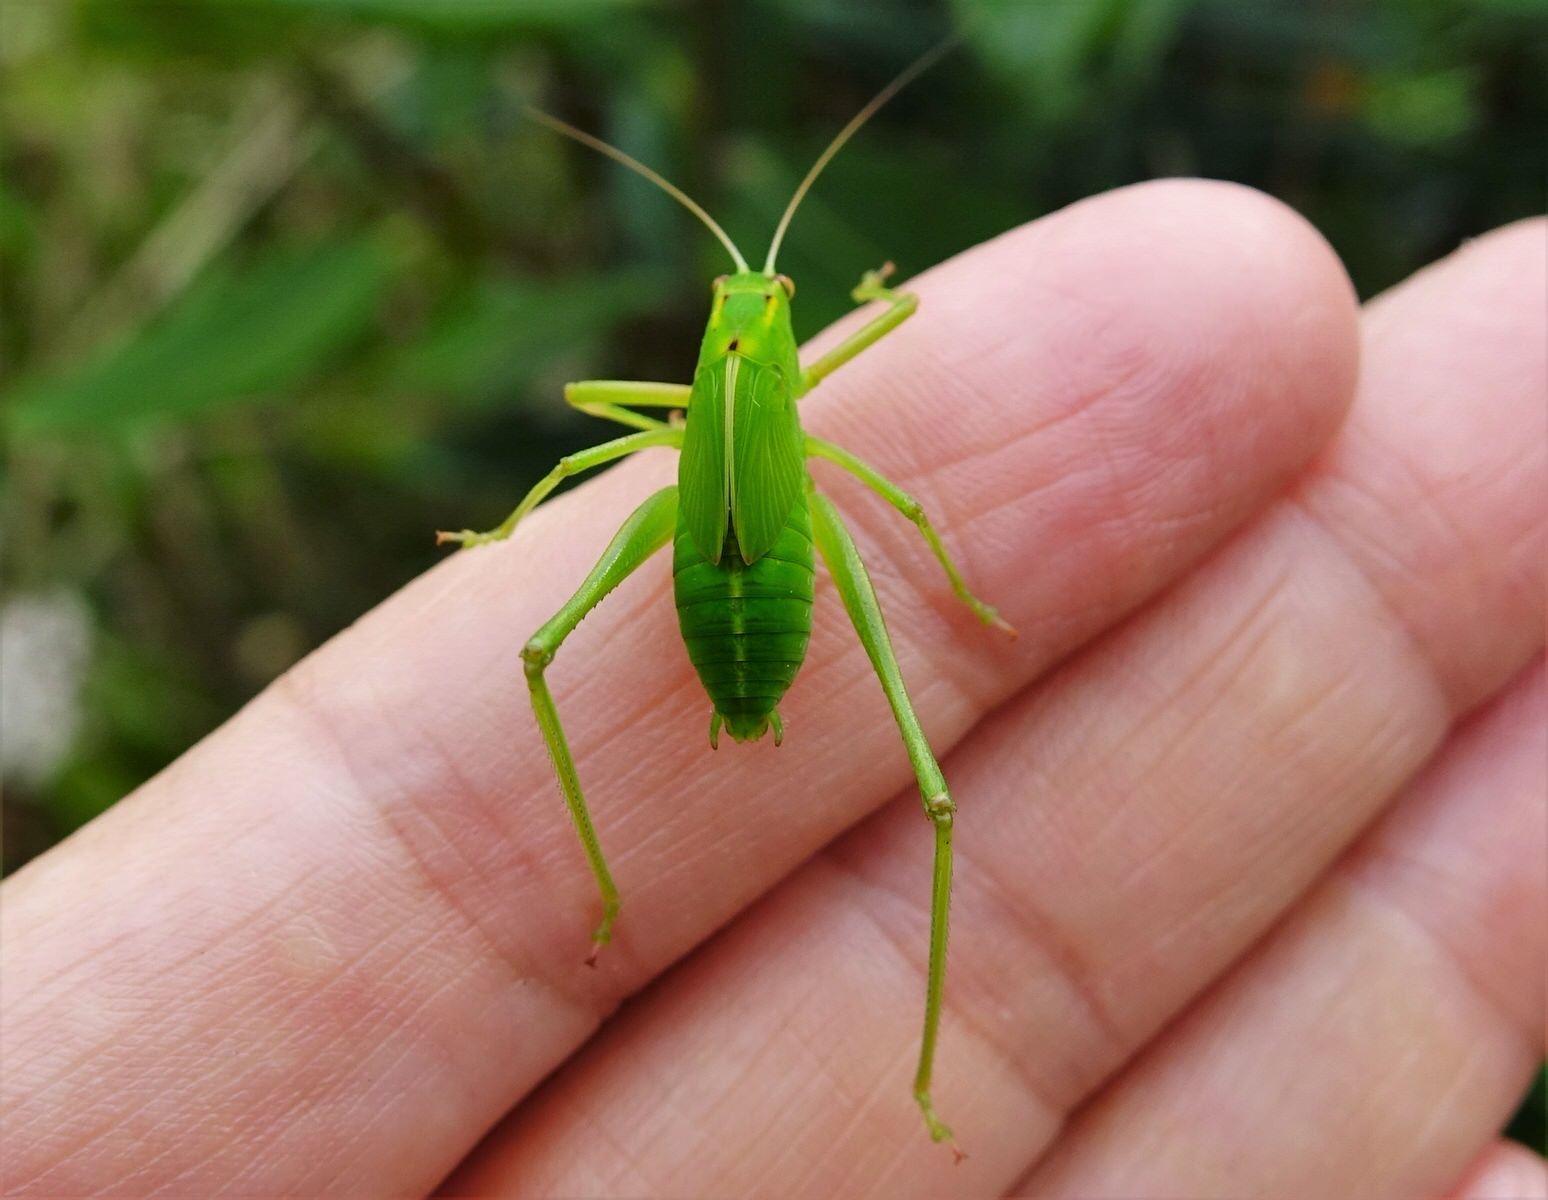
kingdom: Animalia
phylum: Arthropoda
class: Insecta
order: Orthoptera
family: Tettigoniidae
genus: Caedicia
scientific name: Caedicia simplex
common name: Common garden katydid
